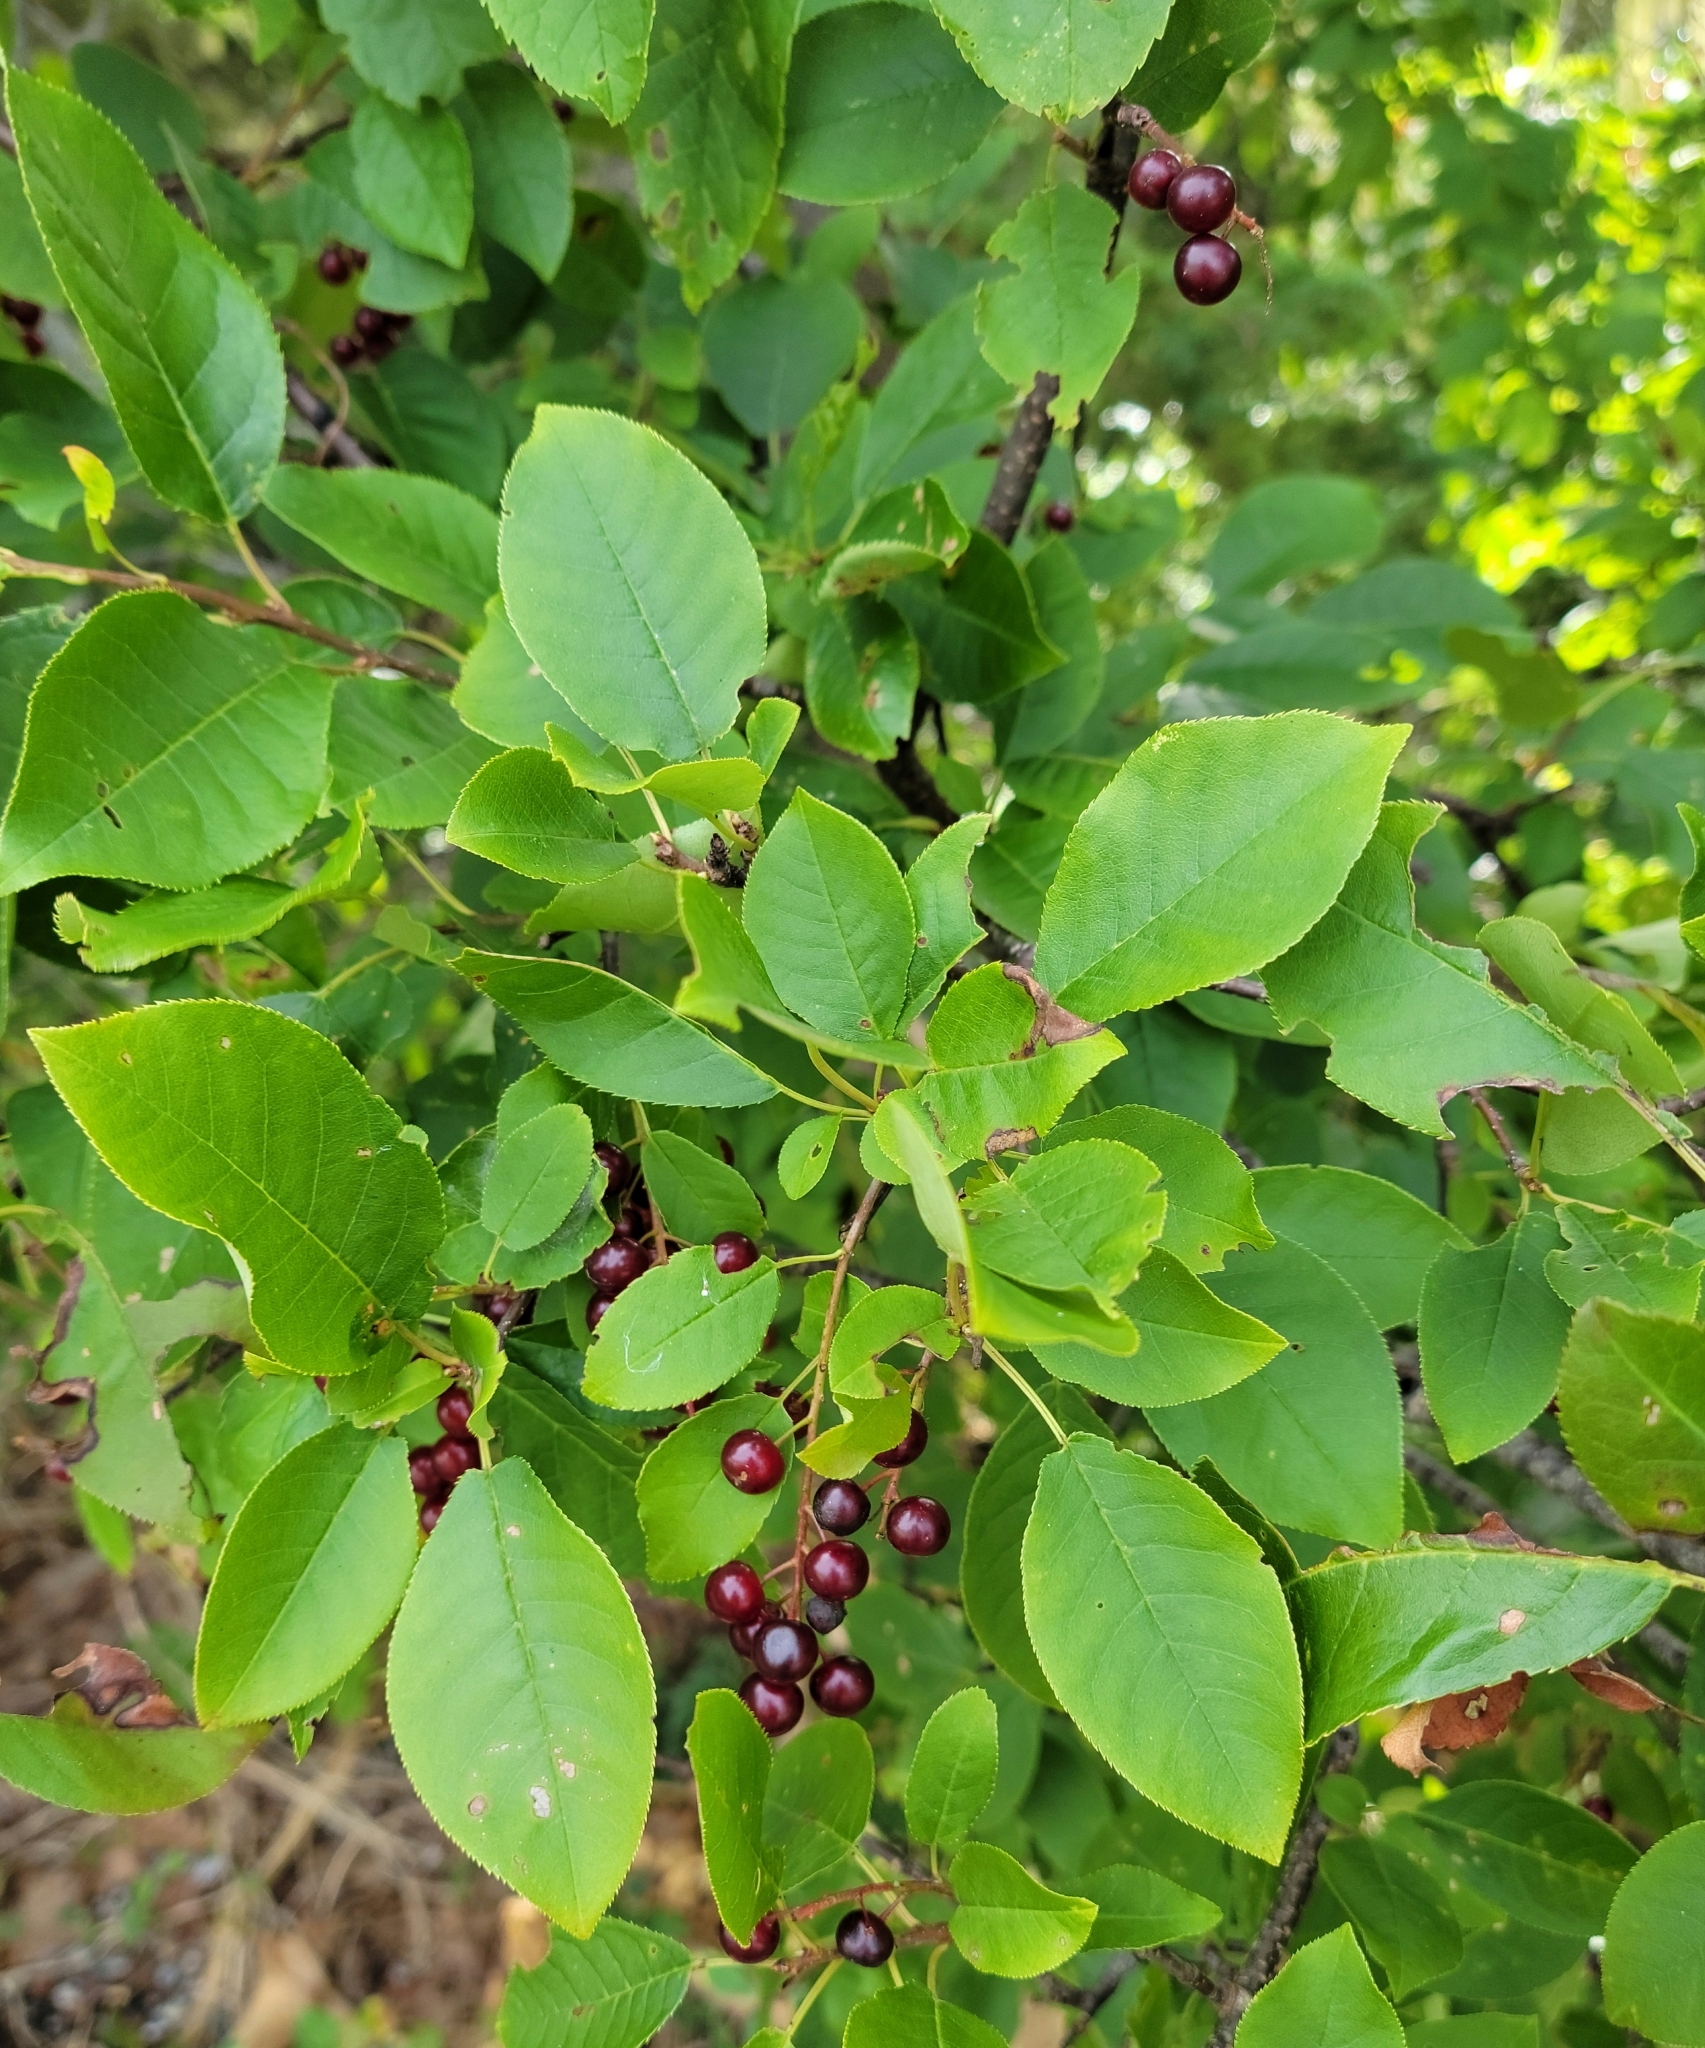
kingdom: Plantae
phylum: Tracheophyta
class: Magnoliopsida
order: Rosales
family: Rosaceae
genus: Prunus
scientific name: Prunus virginiana
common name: Chokecherry
